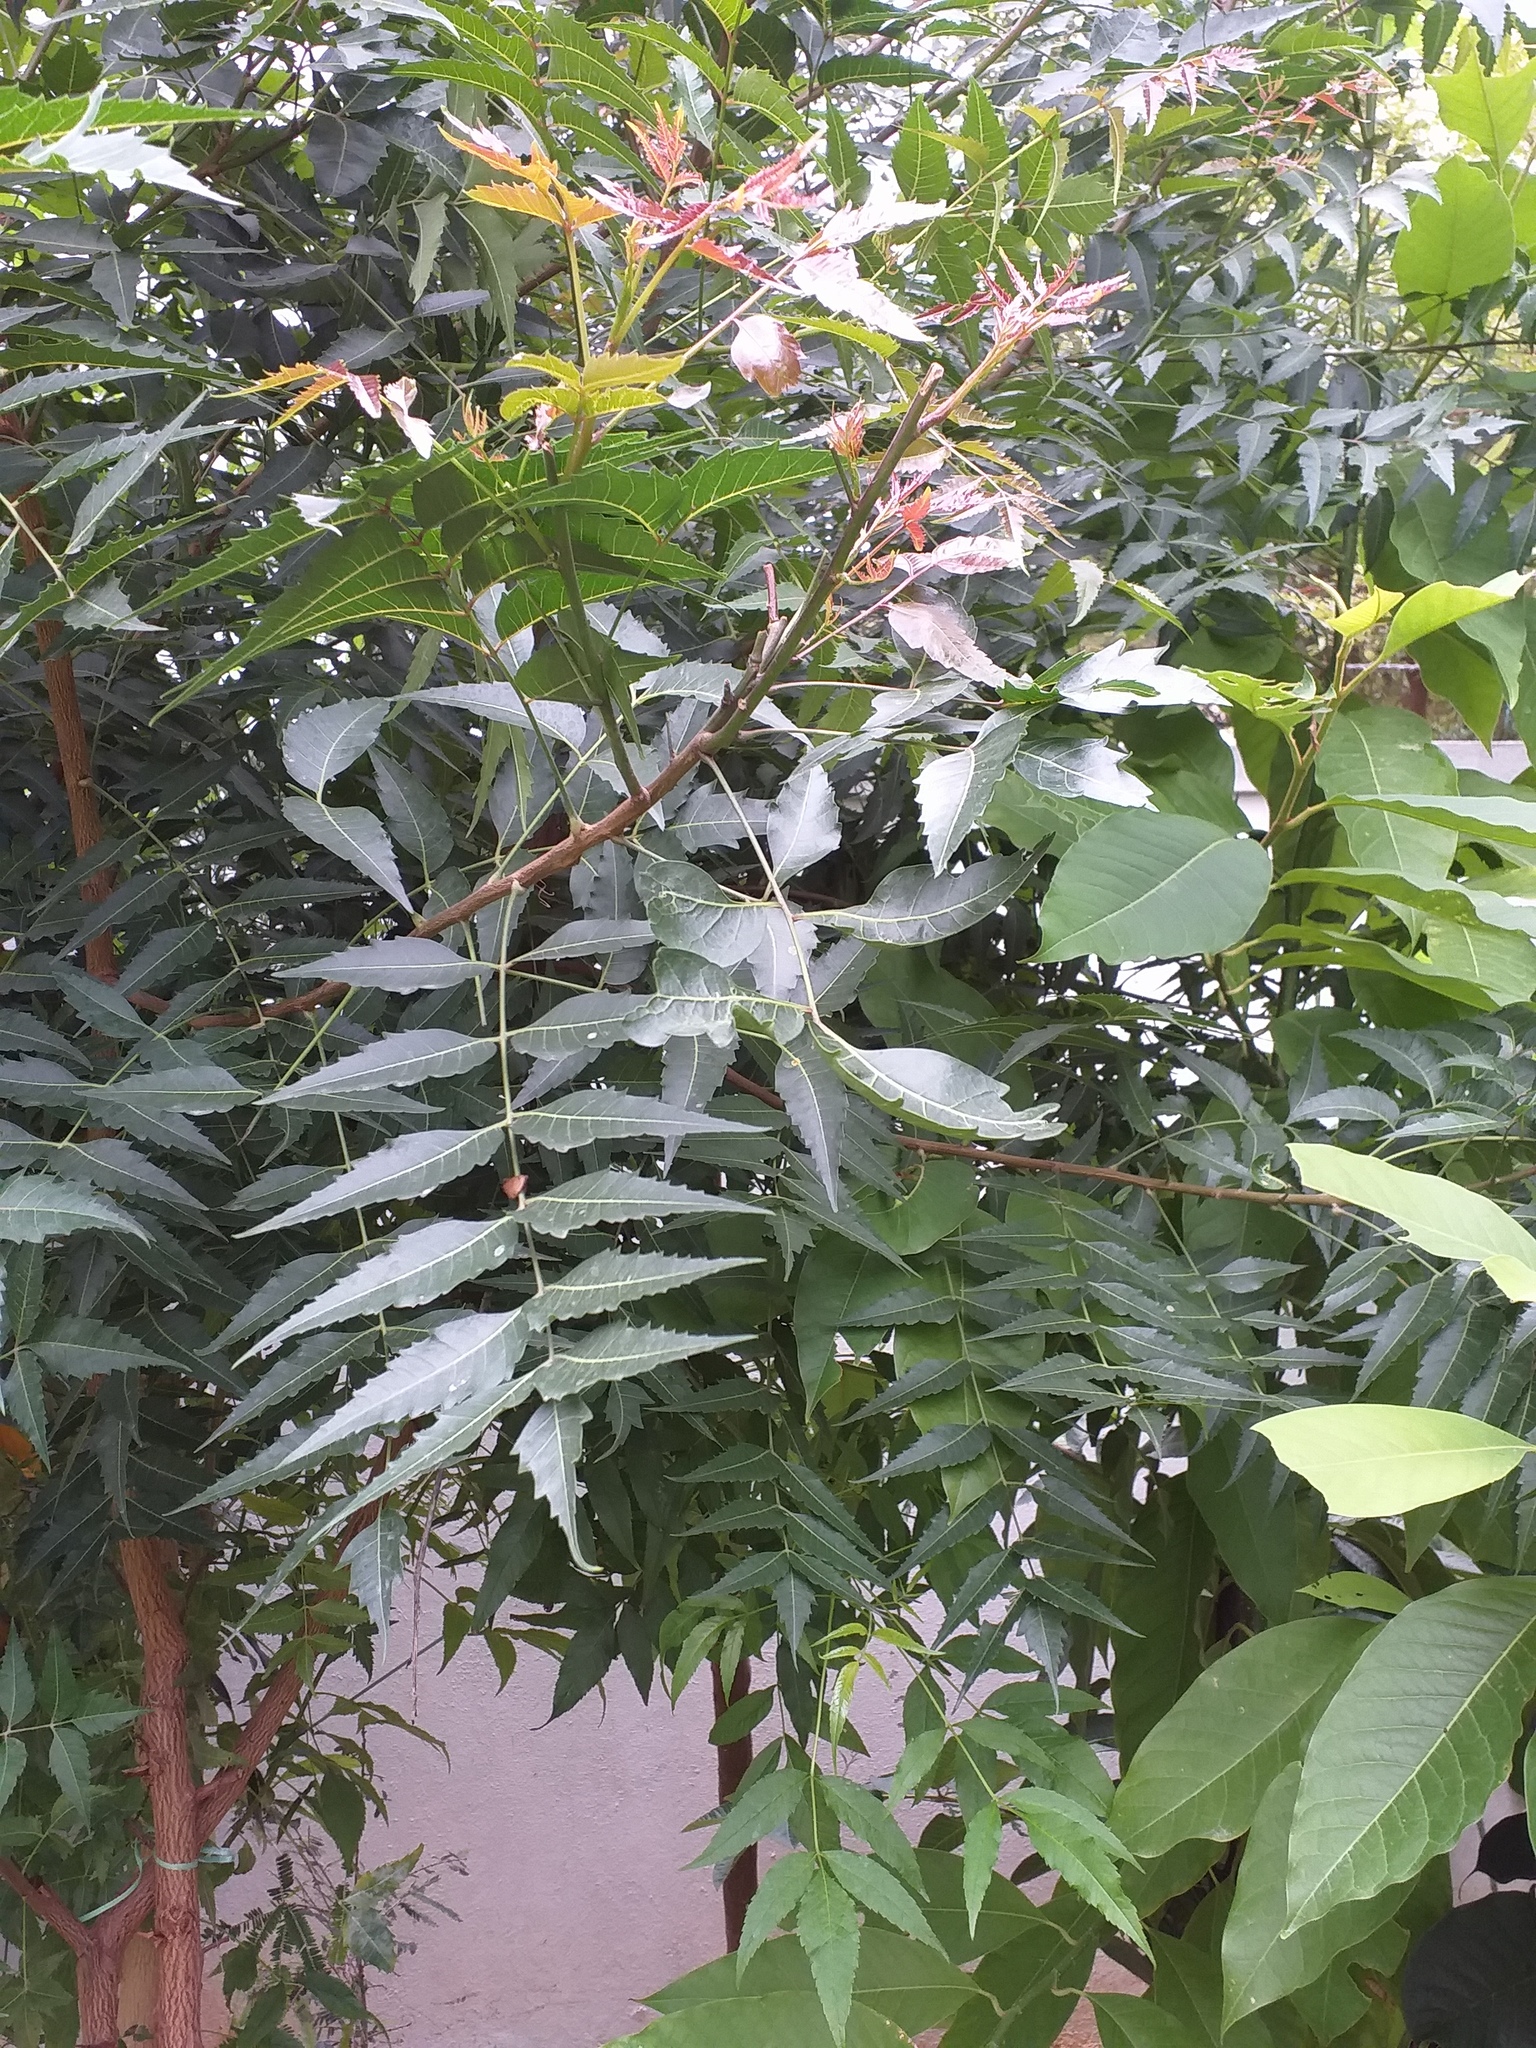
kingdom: Plantae
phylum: Tracheophyta
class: Magnoliopsida
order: Sapindales
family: Meliaceae
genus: Azadirachta
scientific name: Azadirachta indica
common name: Neem
